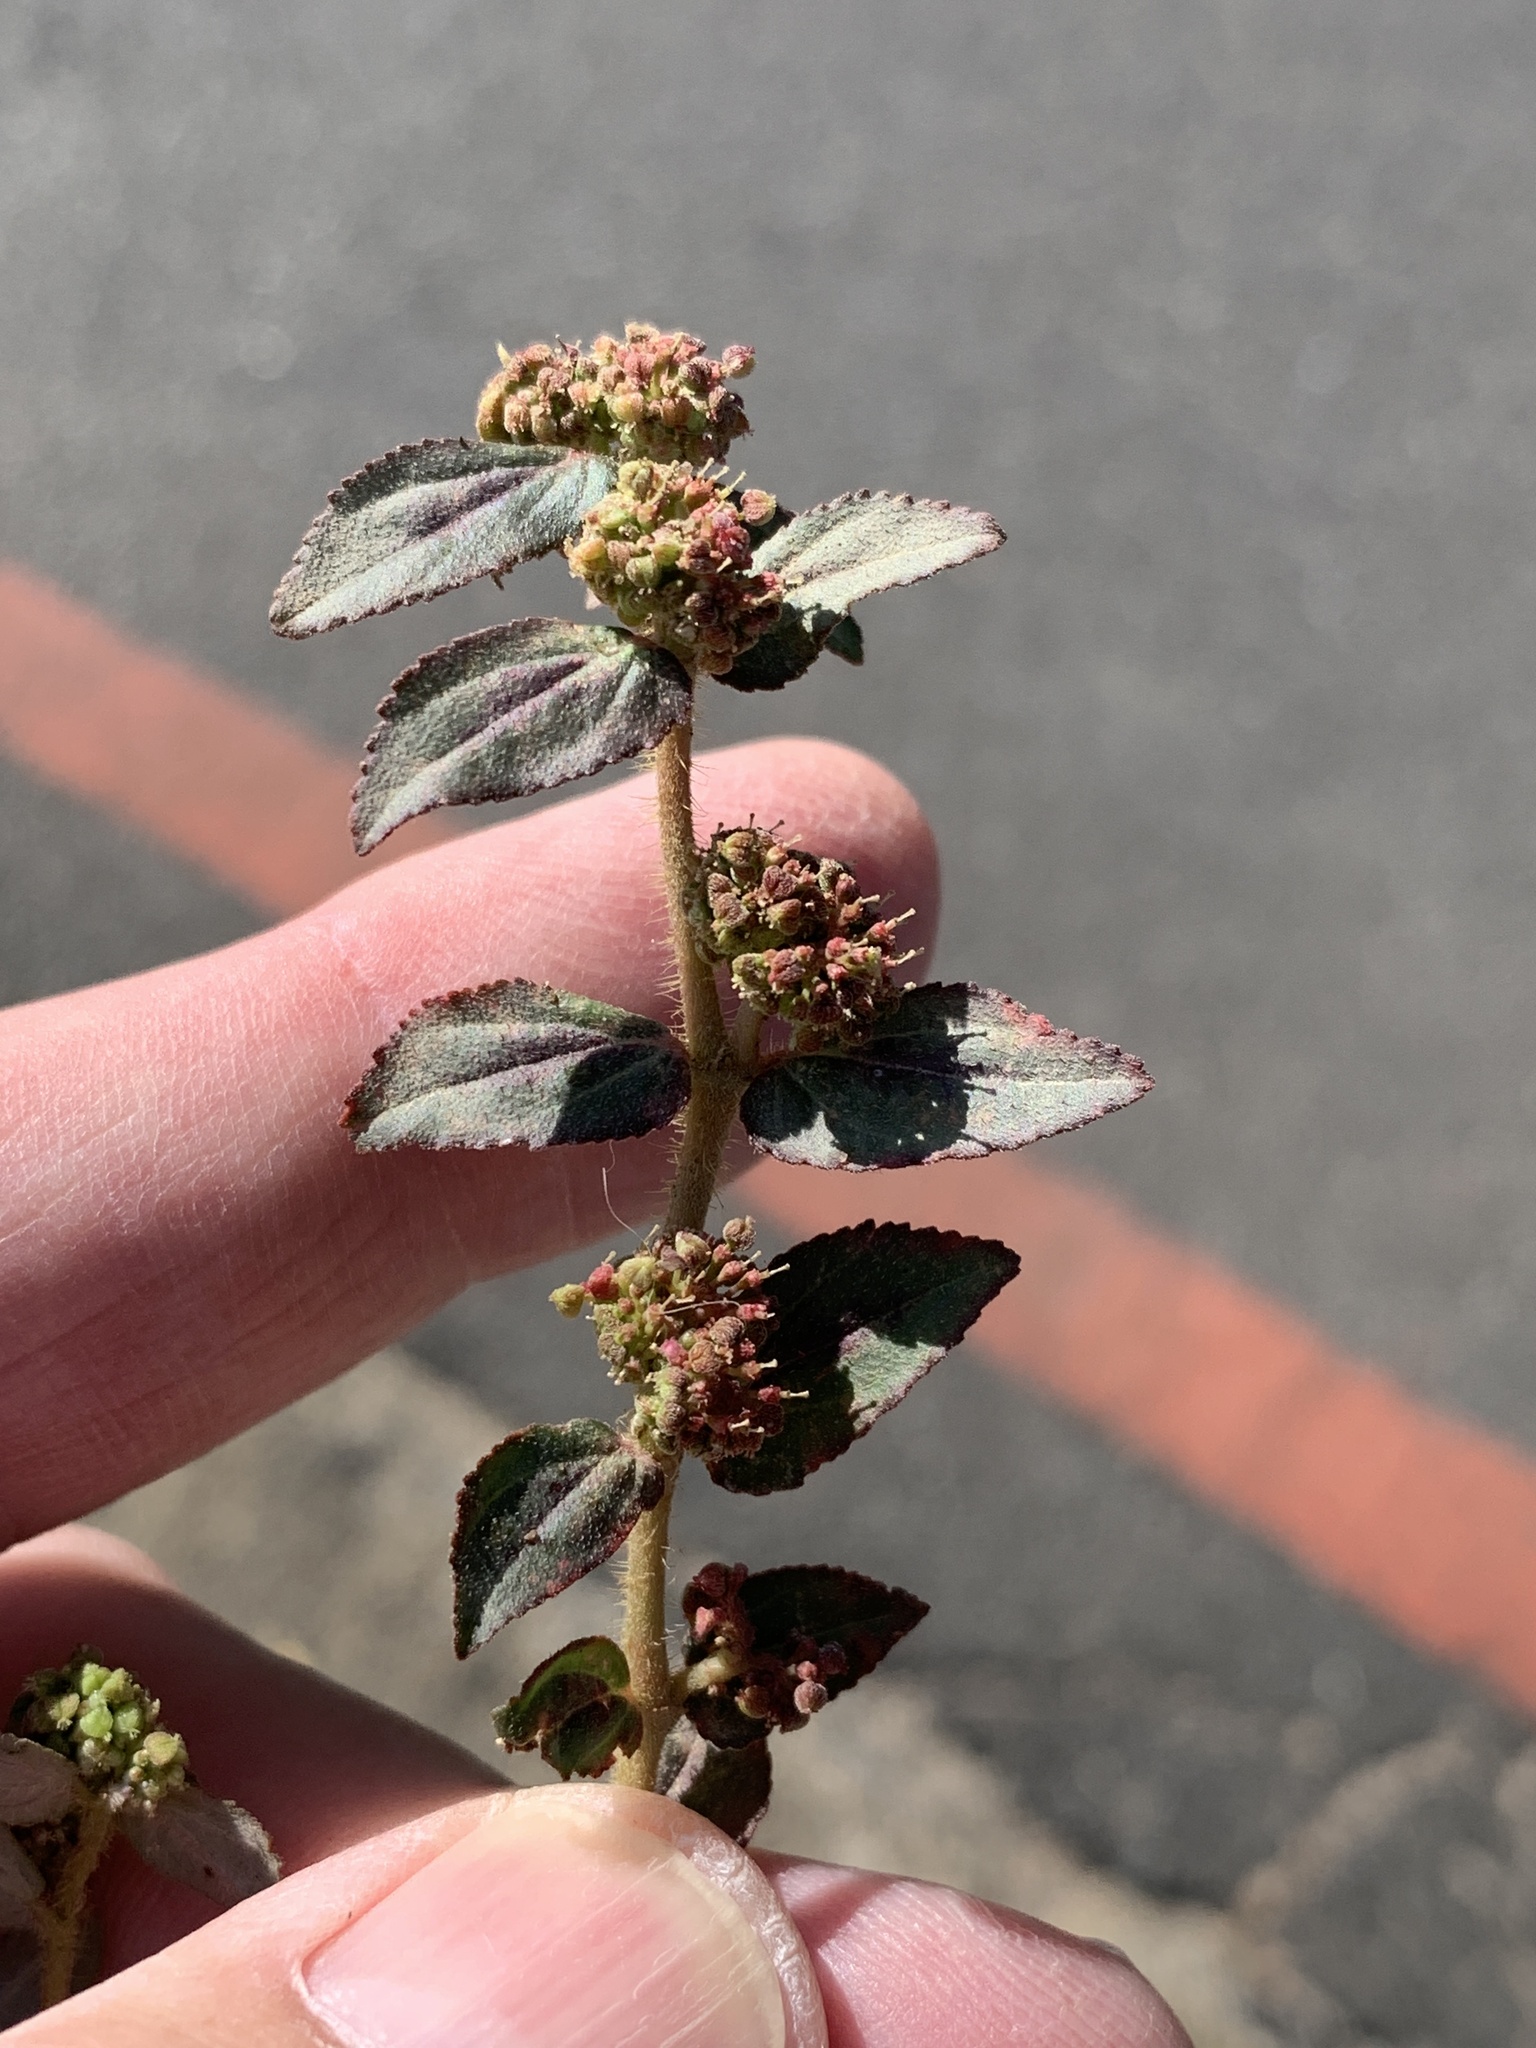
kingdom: Plantae
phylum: Tracheophyta
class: Magnoliopsida
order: Malpighiales
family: Euphorbiaceae
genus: Euphorbia
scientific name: Euphorbia hirta
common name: Pillpod sandmat
